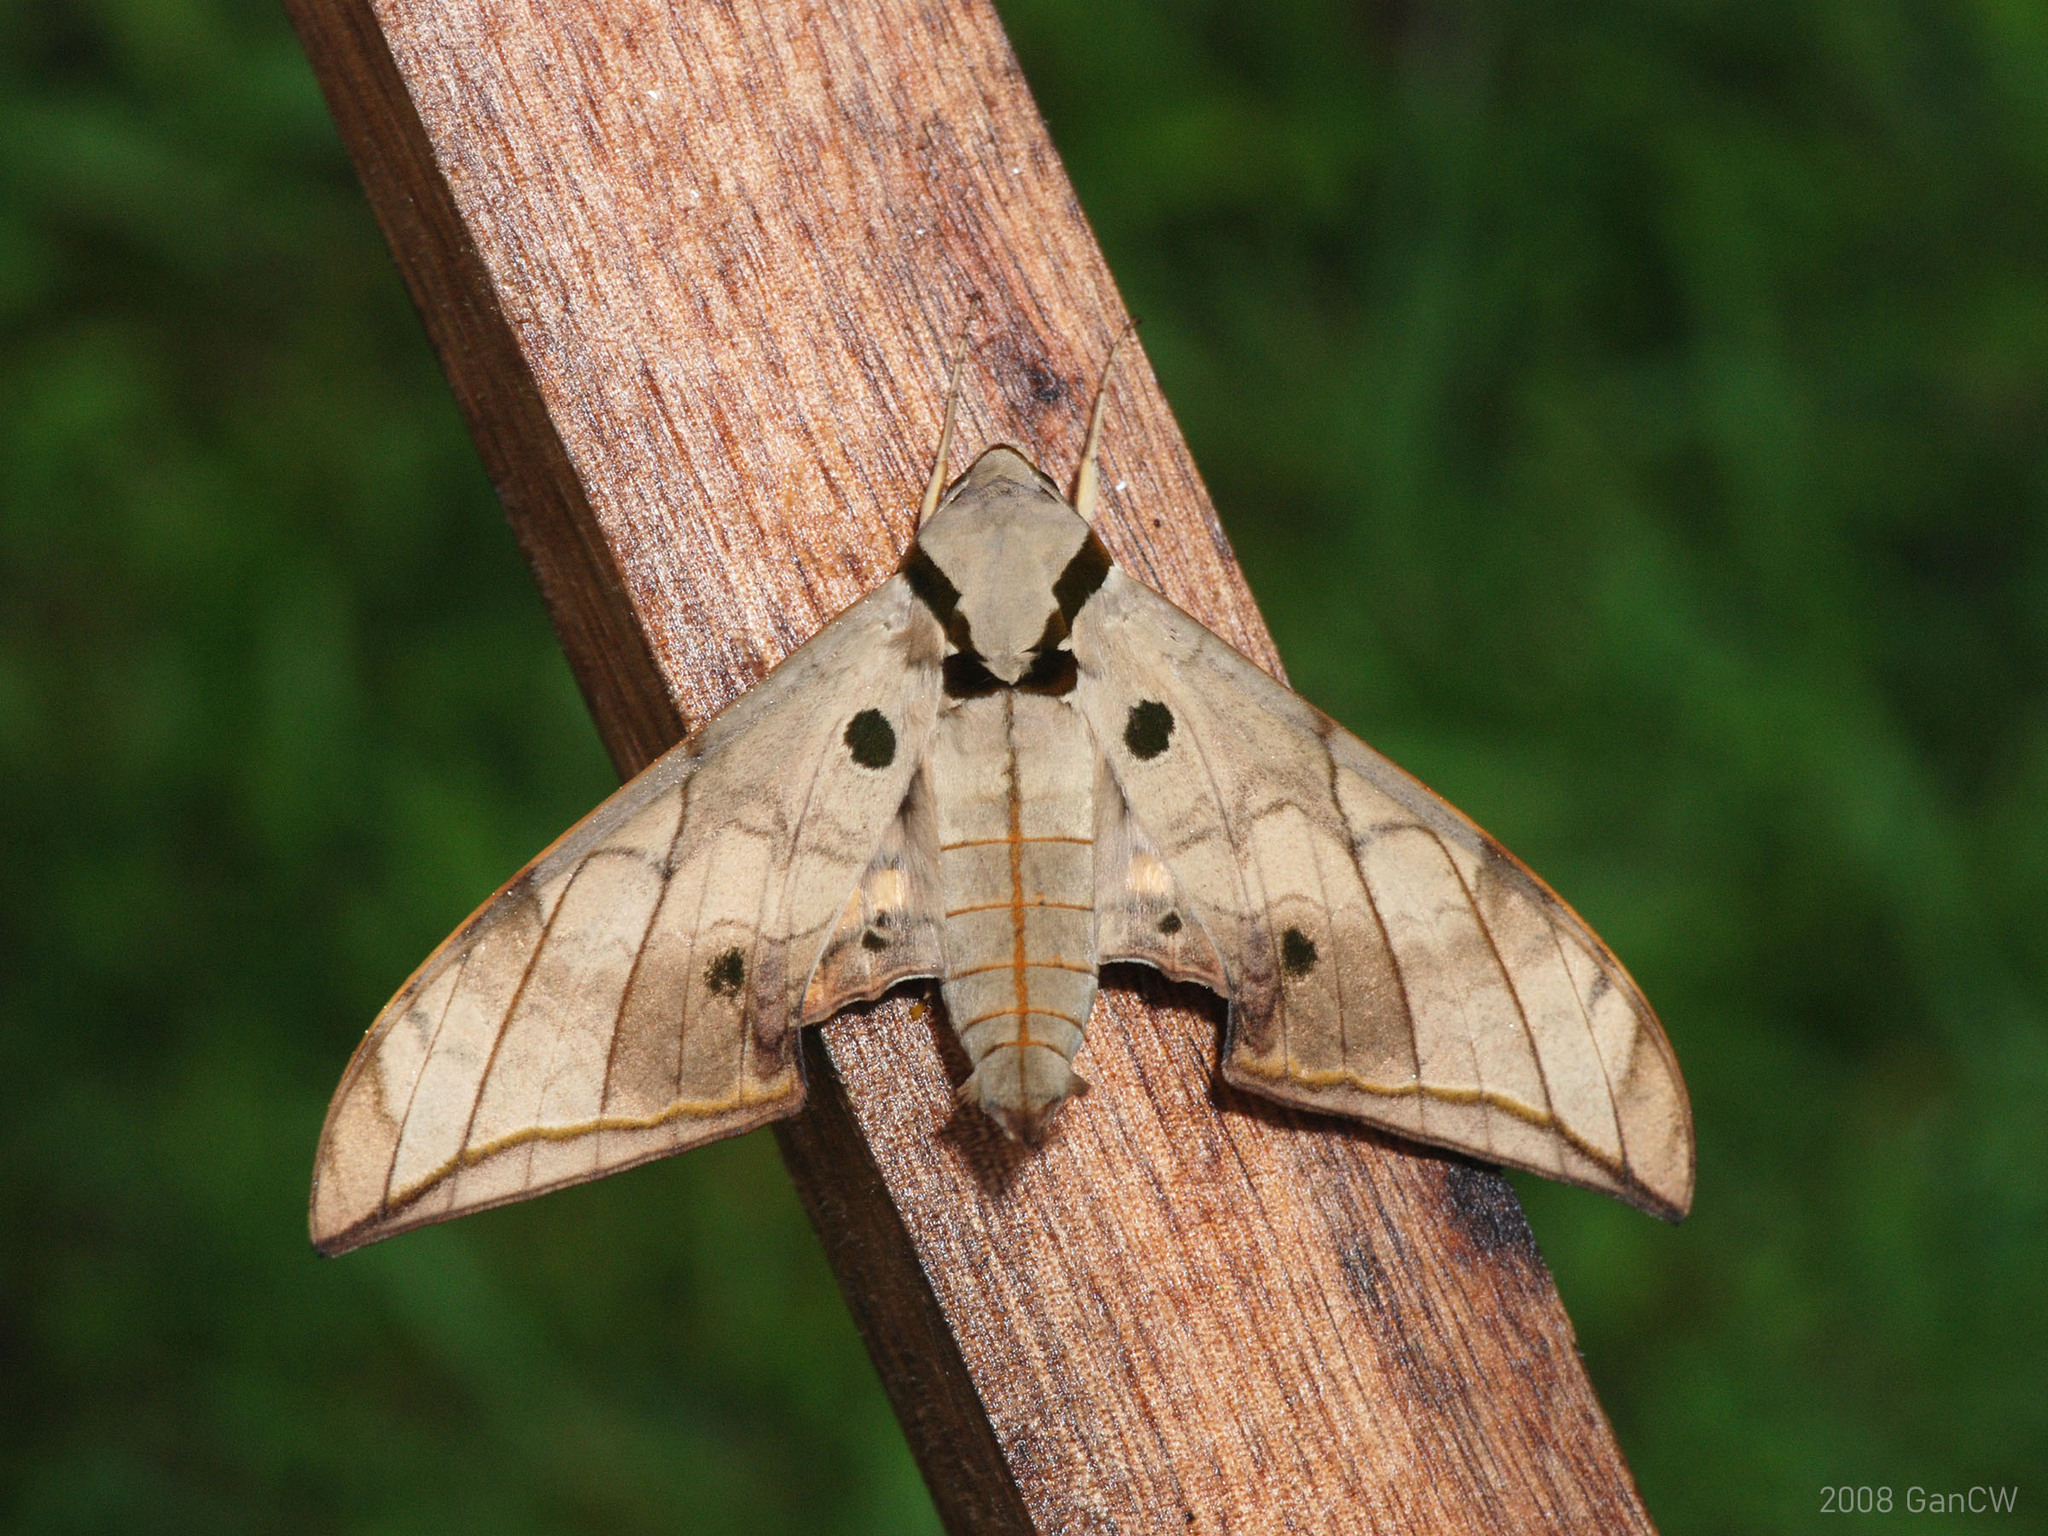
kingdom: Animalia
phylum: Arthropoda
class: Insecta
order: Lepidoptera
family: Sphingidae
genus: Ambulyx
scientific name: Ambulyx substrigilis
